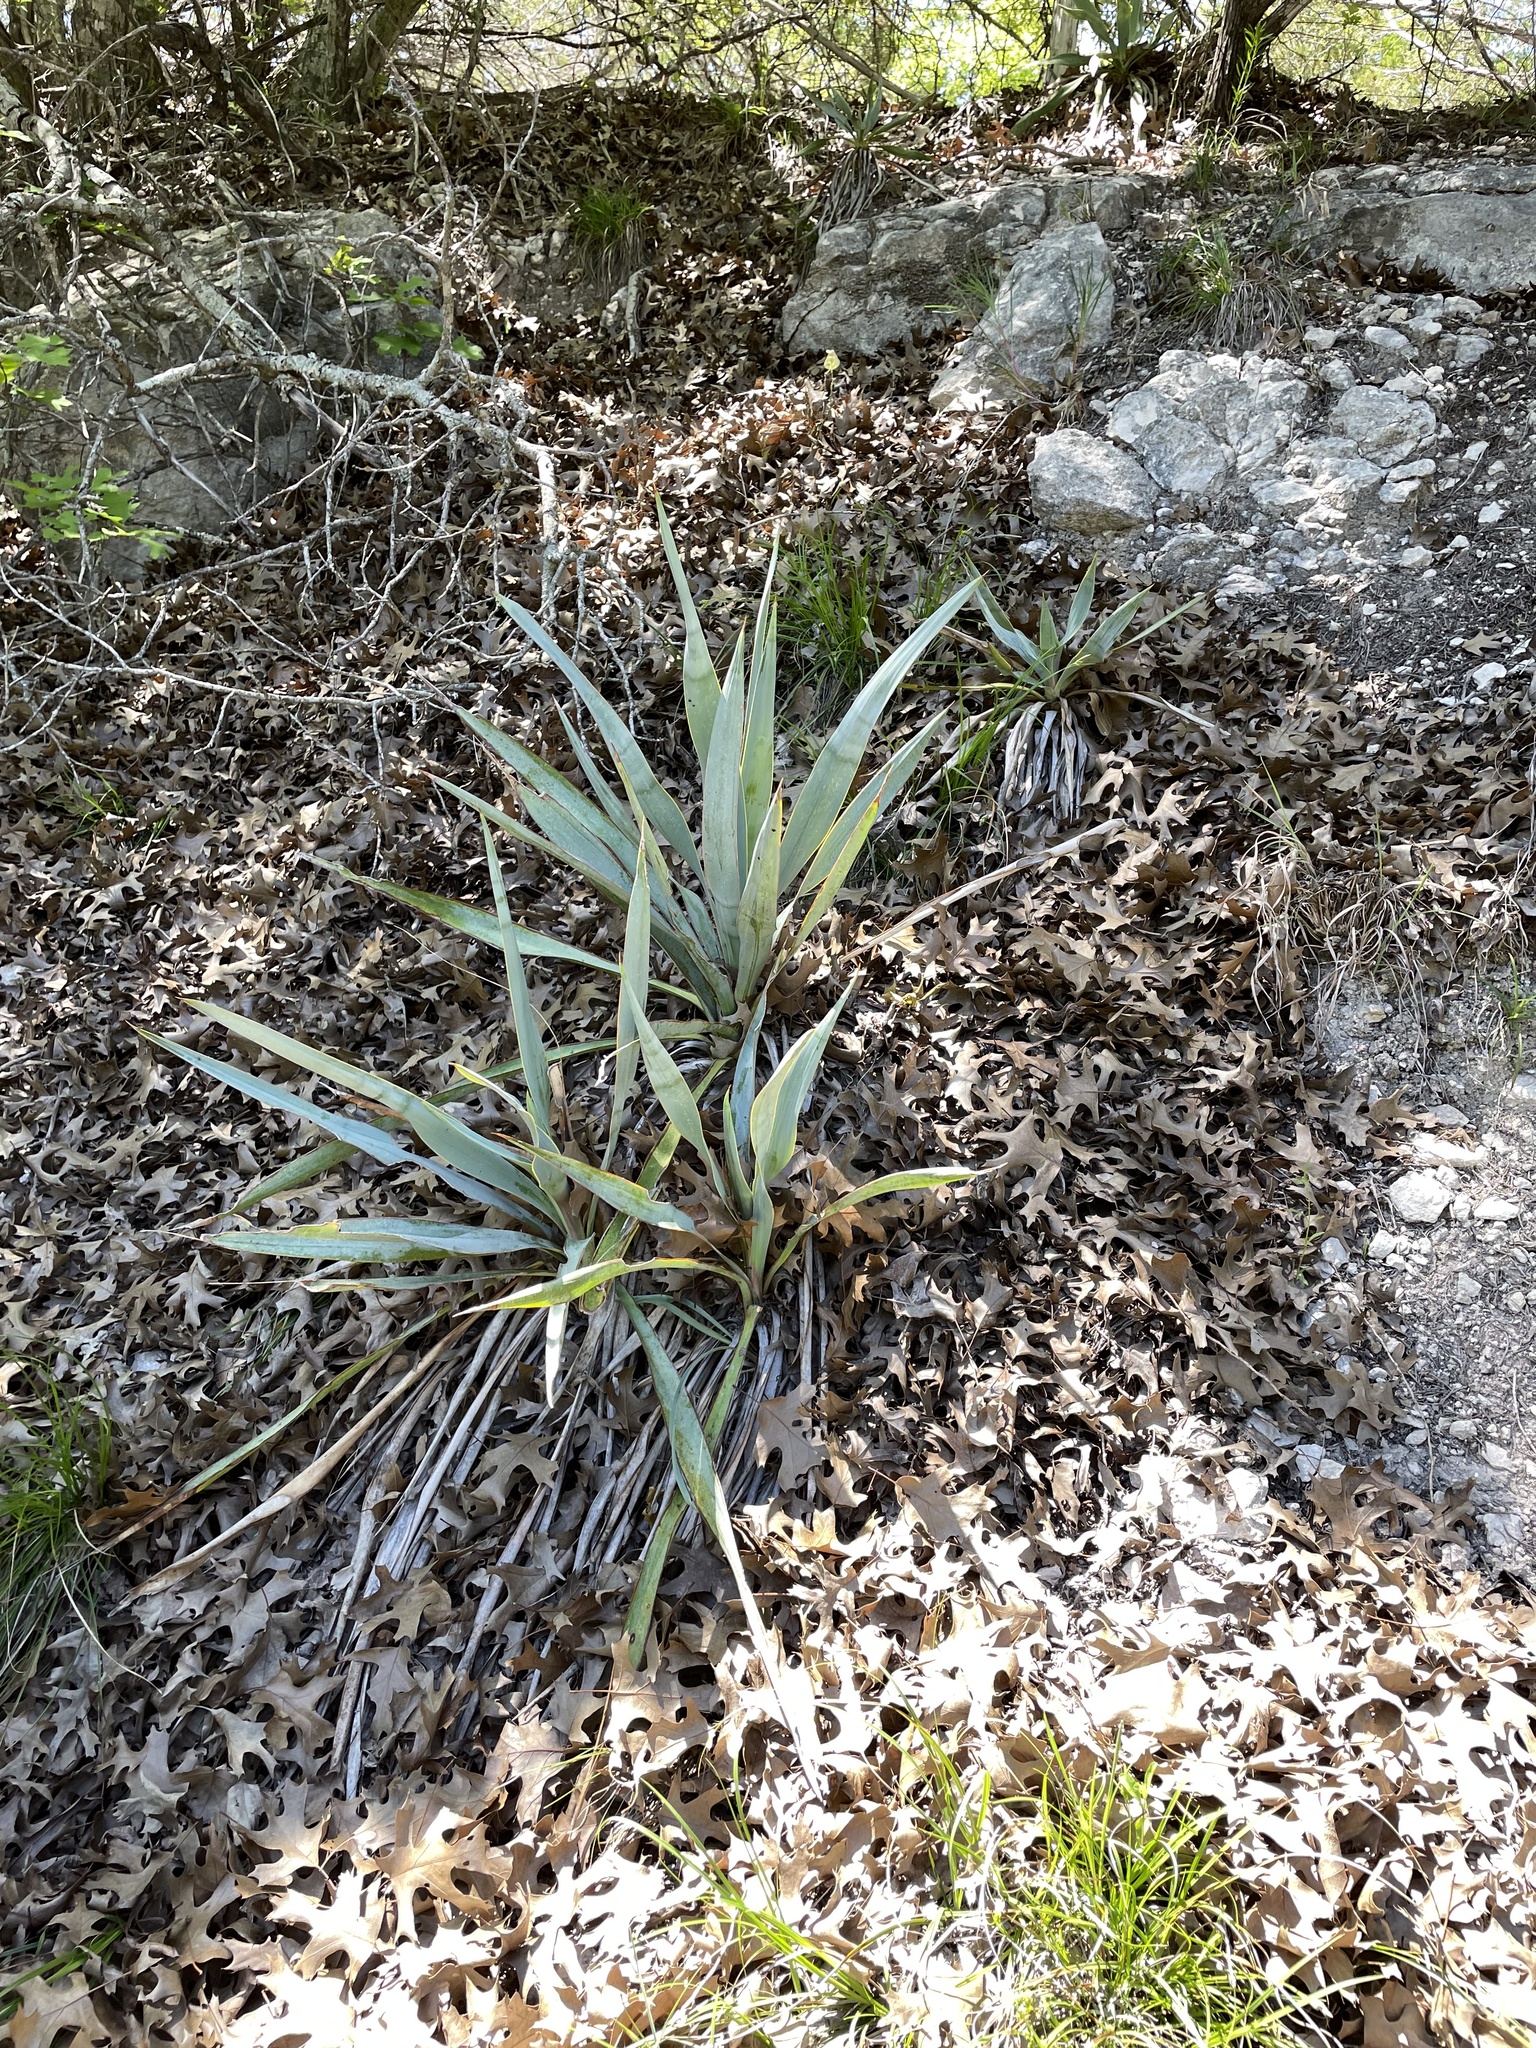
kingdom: Plantae
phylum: Tracheophyta
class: Liliopsida
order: Asparagales
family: Asparagaceae
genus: Yucca
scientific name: Yucca pallida
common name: Pale leaf yucca
